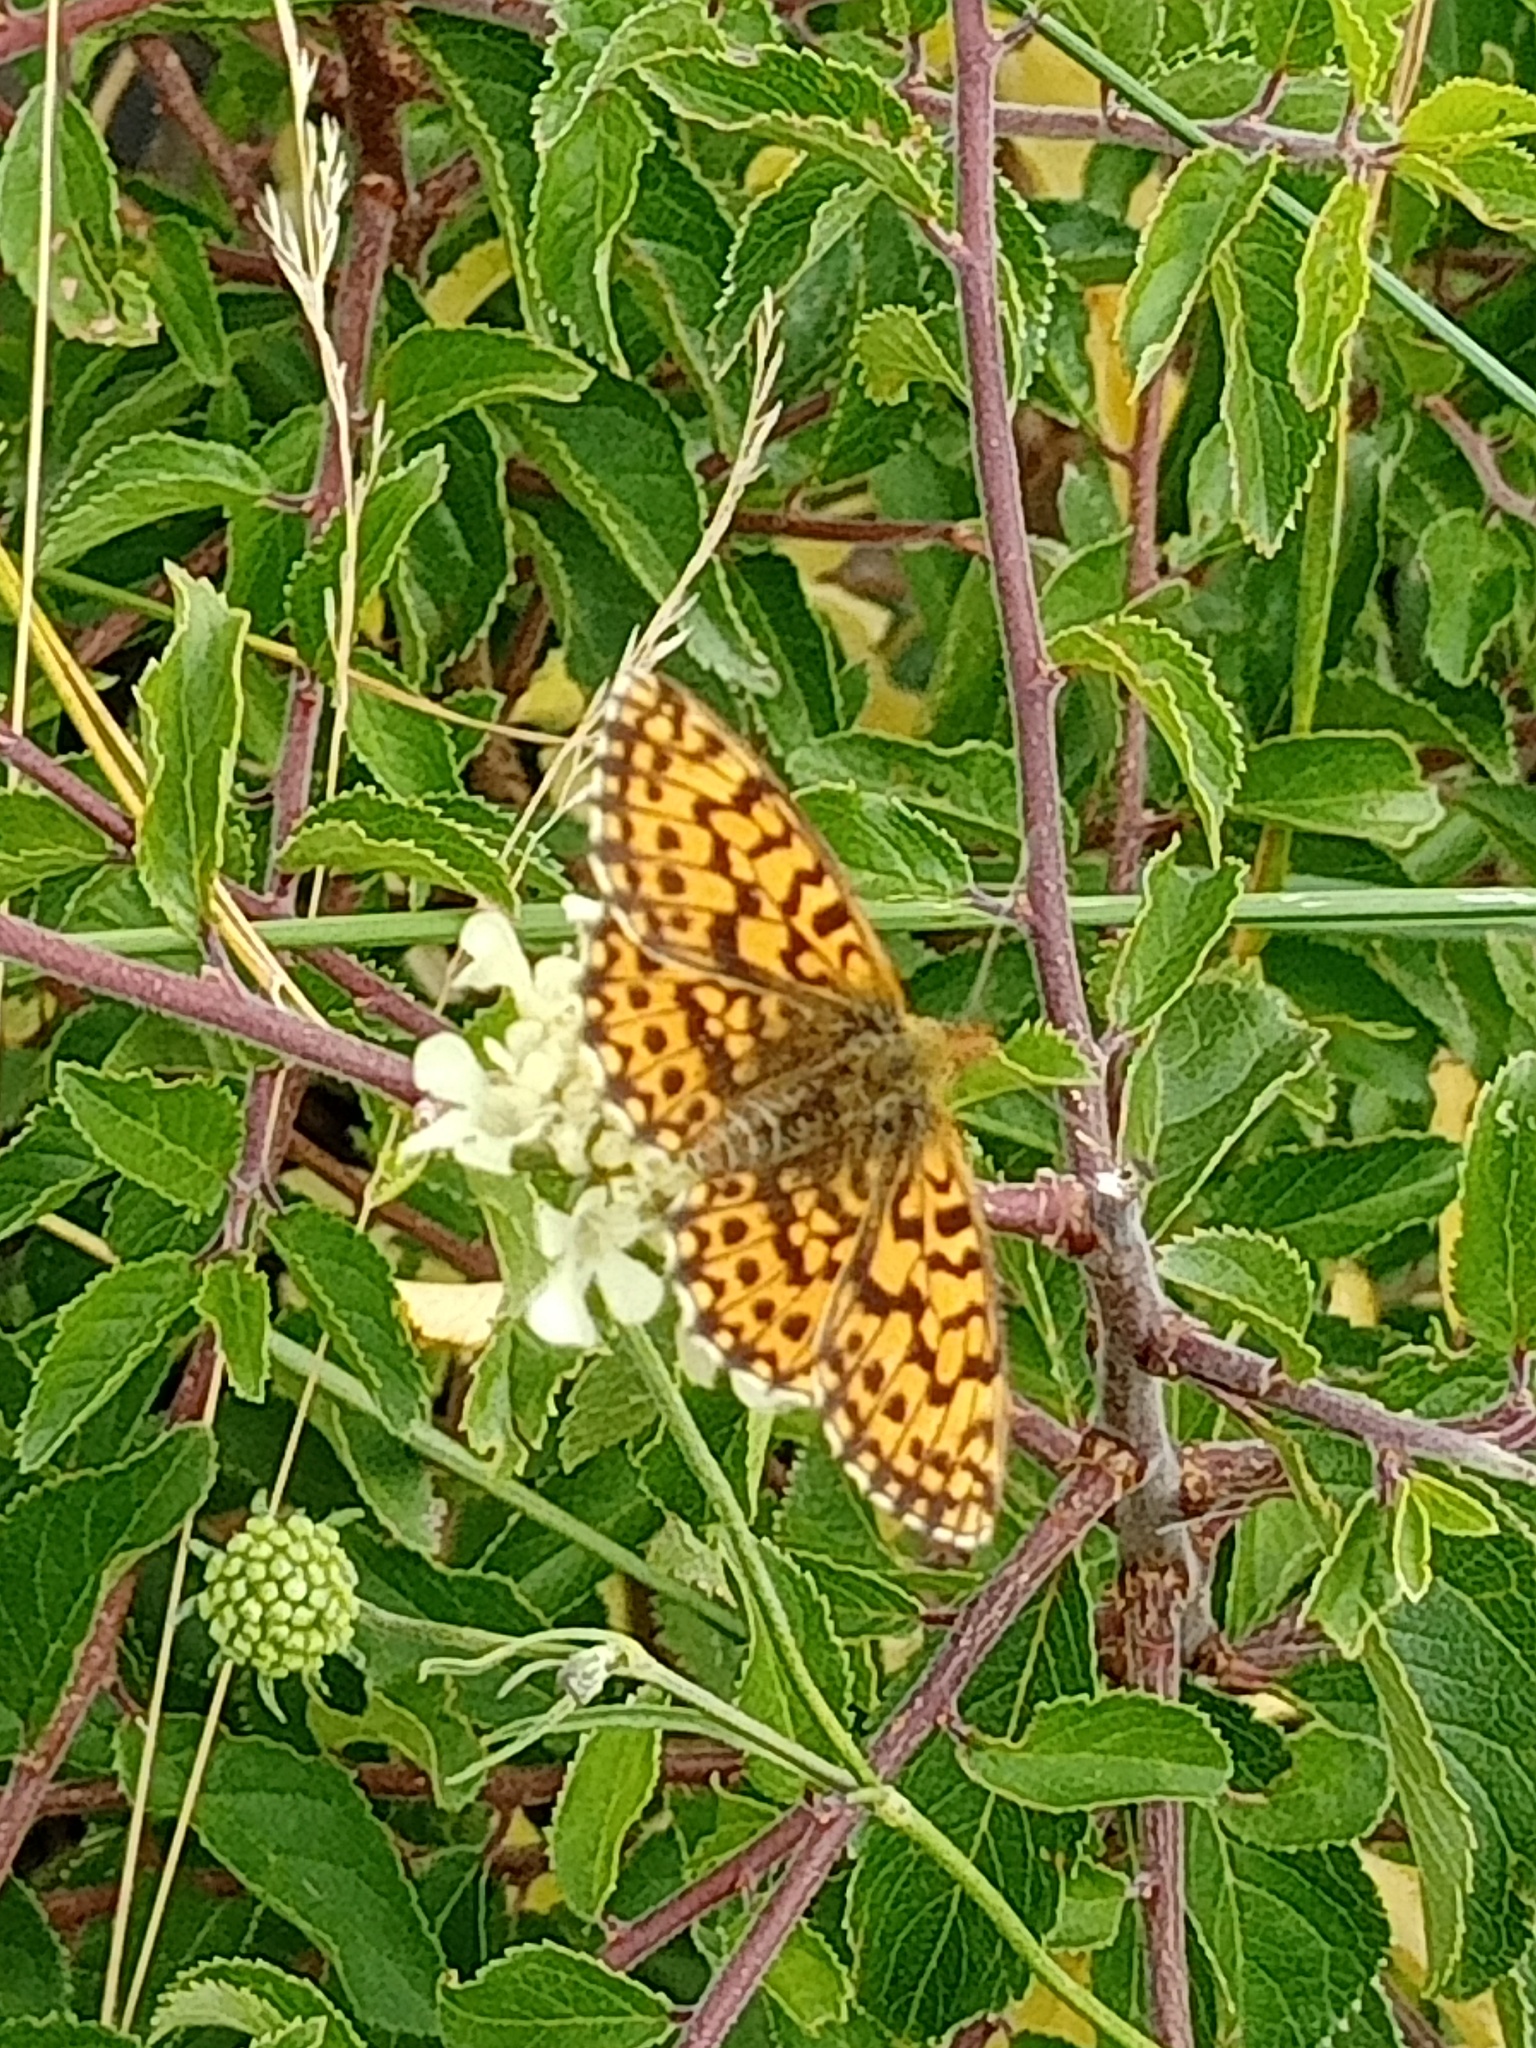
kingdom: Animalia
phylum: Arthropoda
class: Insecta
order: Lepidoptera
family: Nymphalidae
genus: Boloria
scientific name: Boloria dia
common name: Weaver's fritillary
